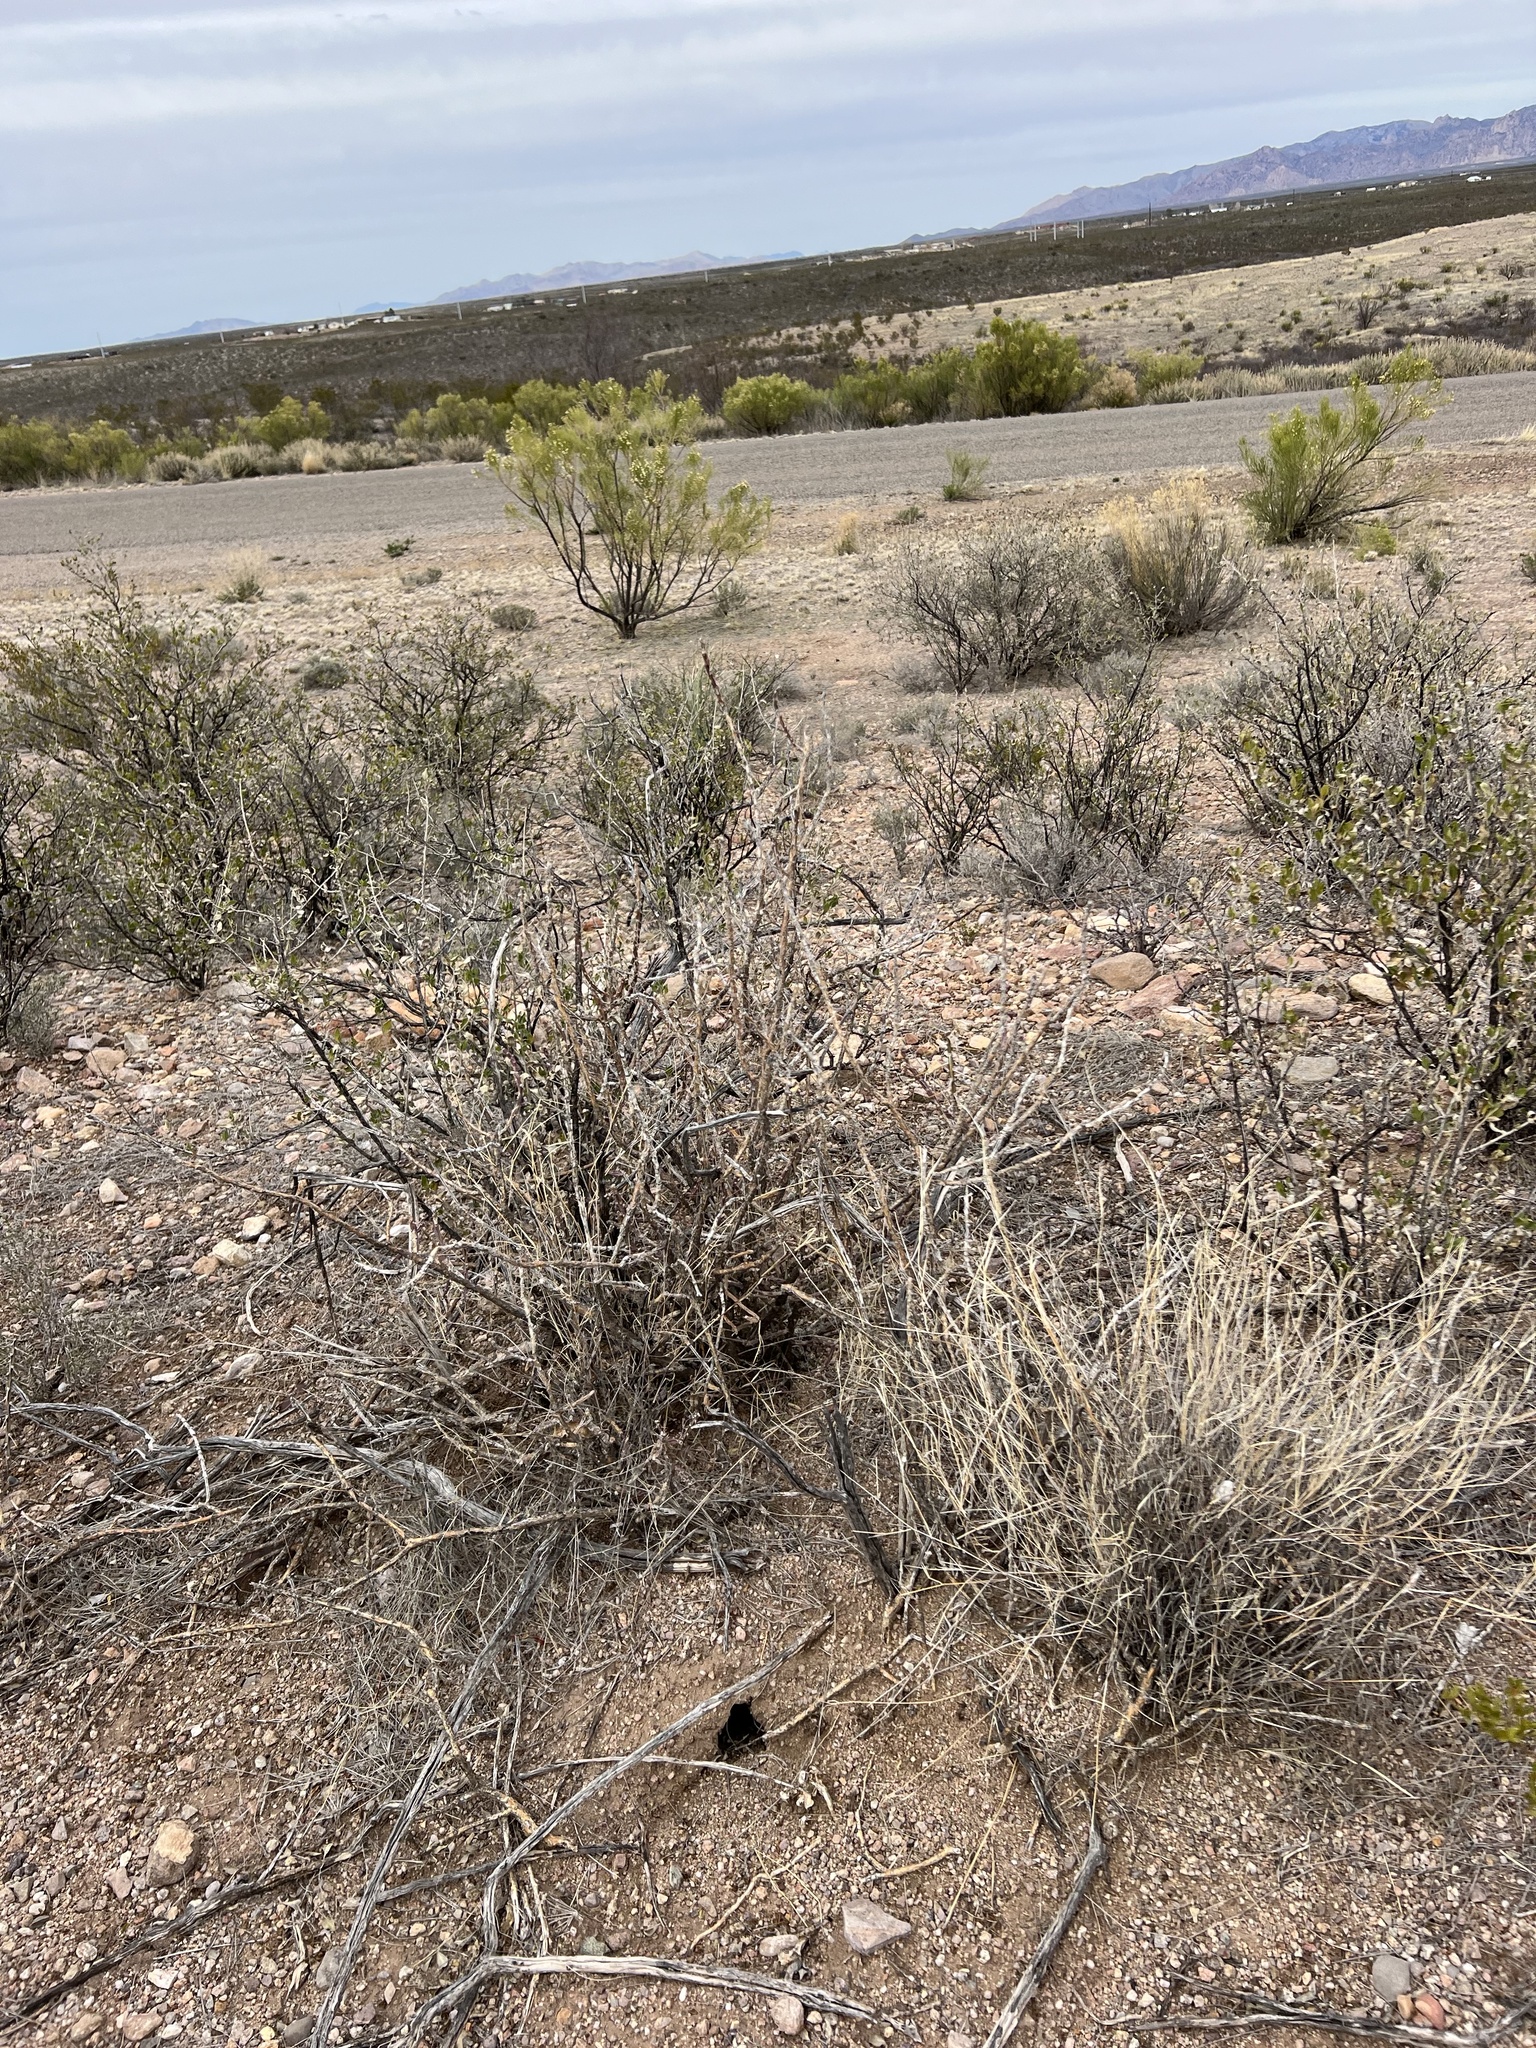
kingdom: Plantae
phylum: Tracheophyta
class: Magnoliopsida
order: Caryophyllales
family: Cactaceae
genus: Cylindropuntia
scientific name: Cylindropuntia leptocaulis
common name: Christmas cactus
